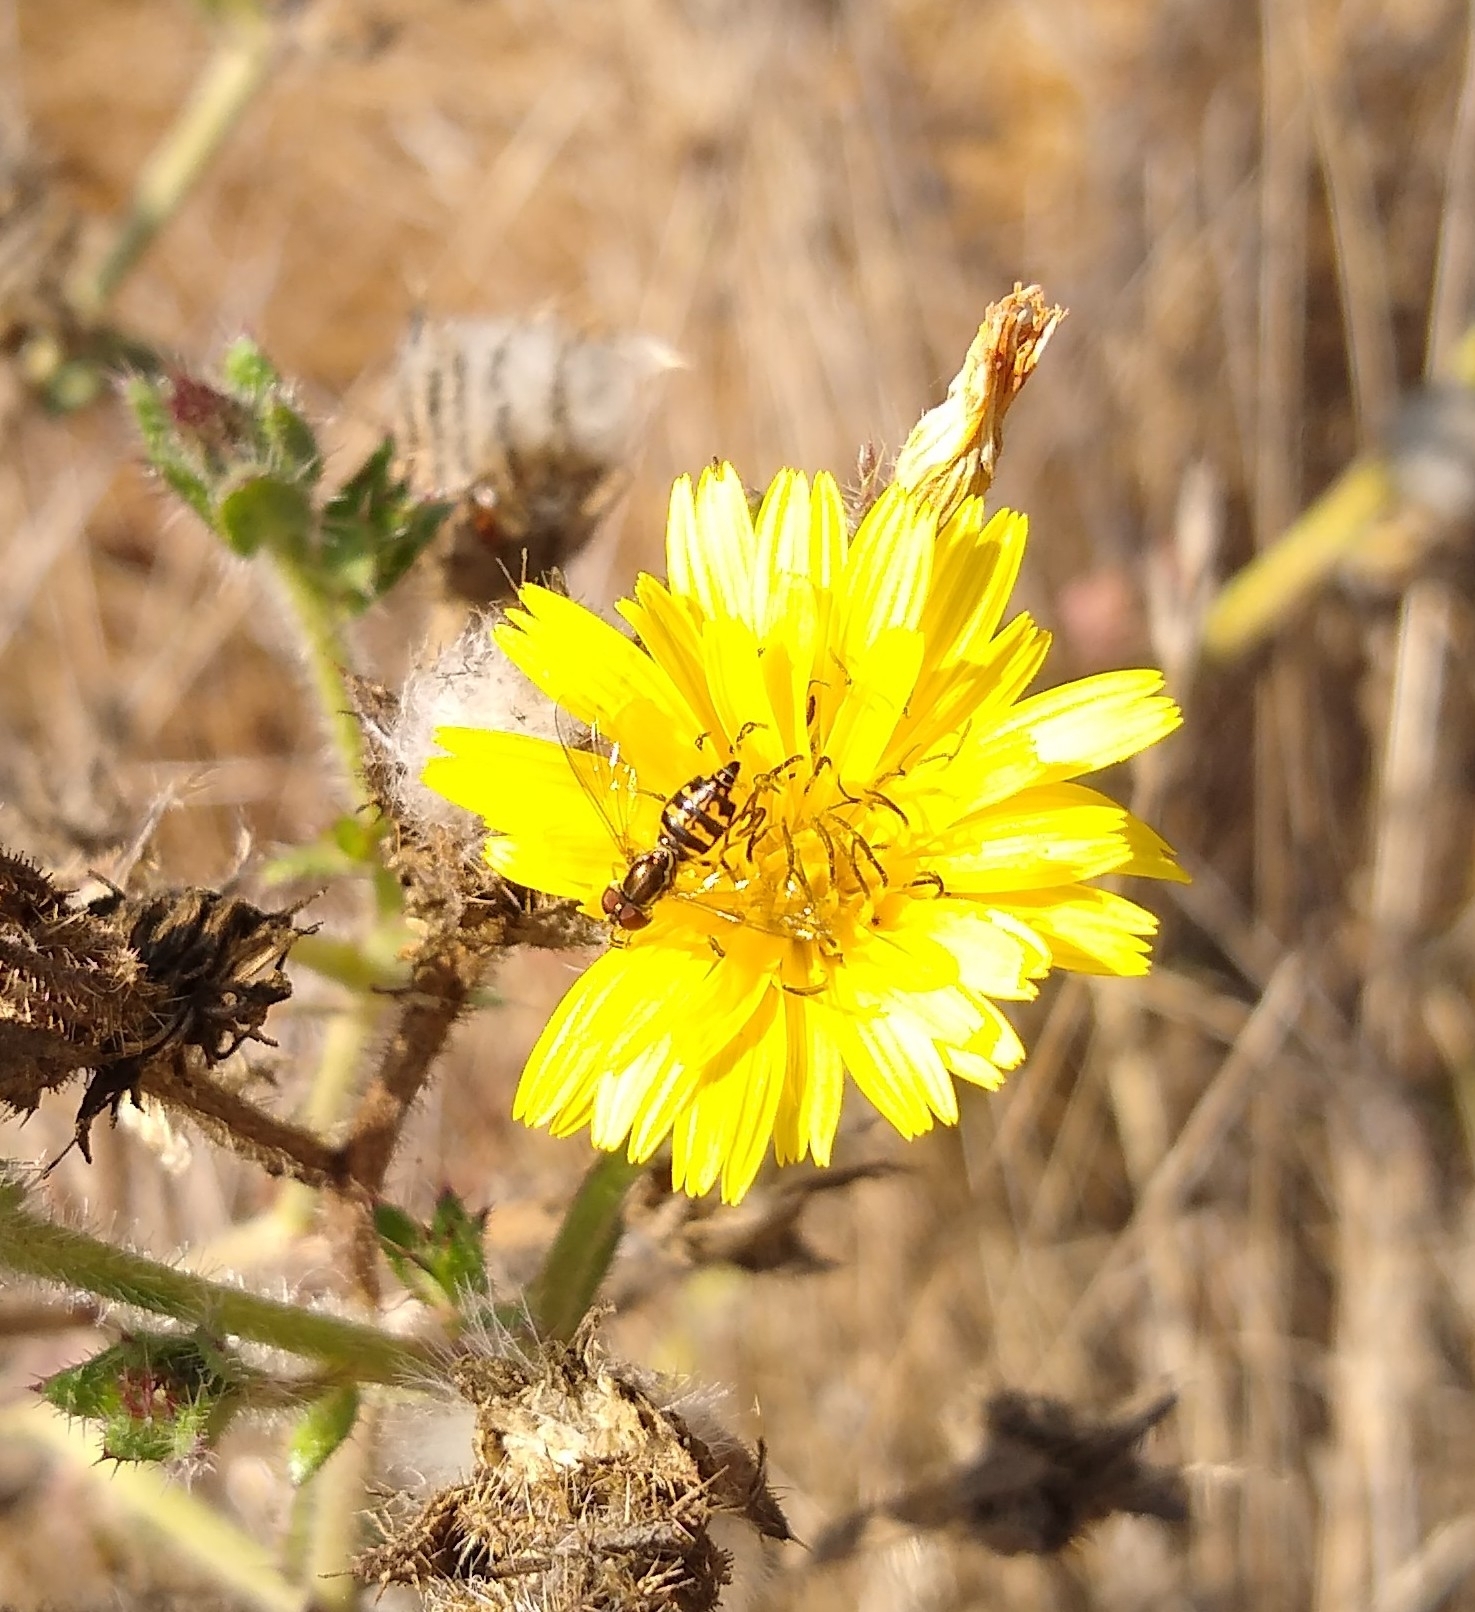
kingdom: Animalia
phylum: Arthropoda
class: Insecta
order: Diptera
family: Syrphidae
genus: Toxomerus
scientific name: Toxomerus occidentalis
